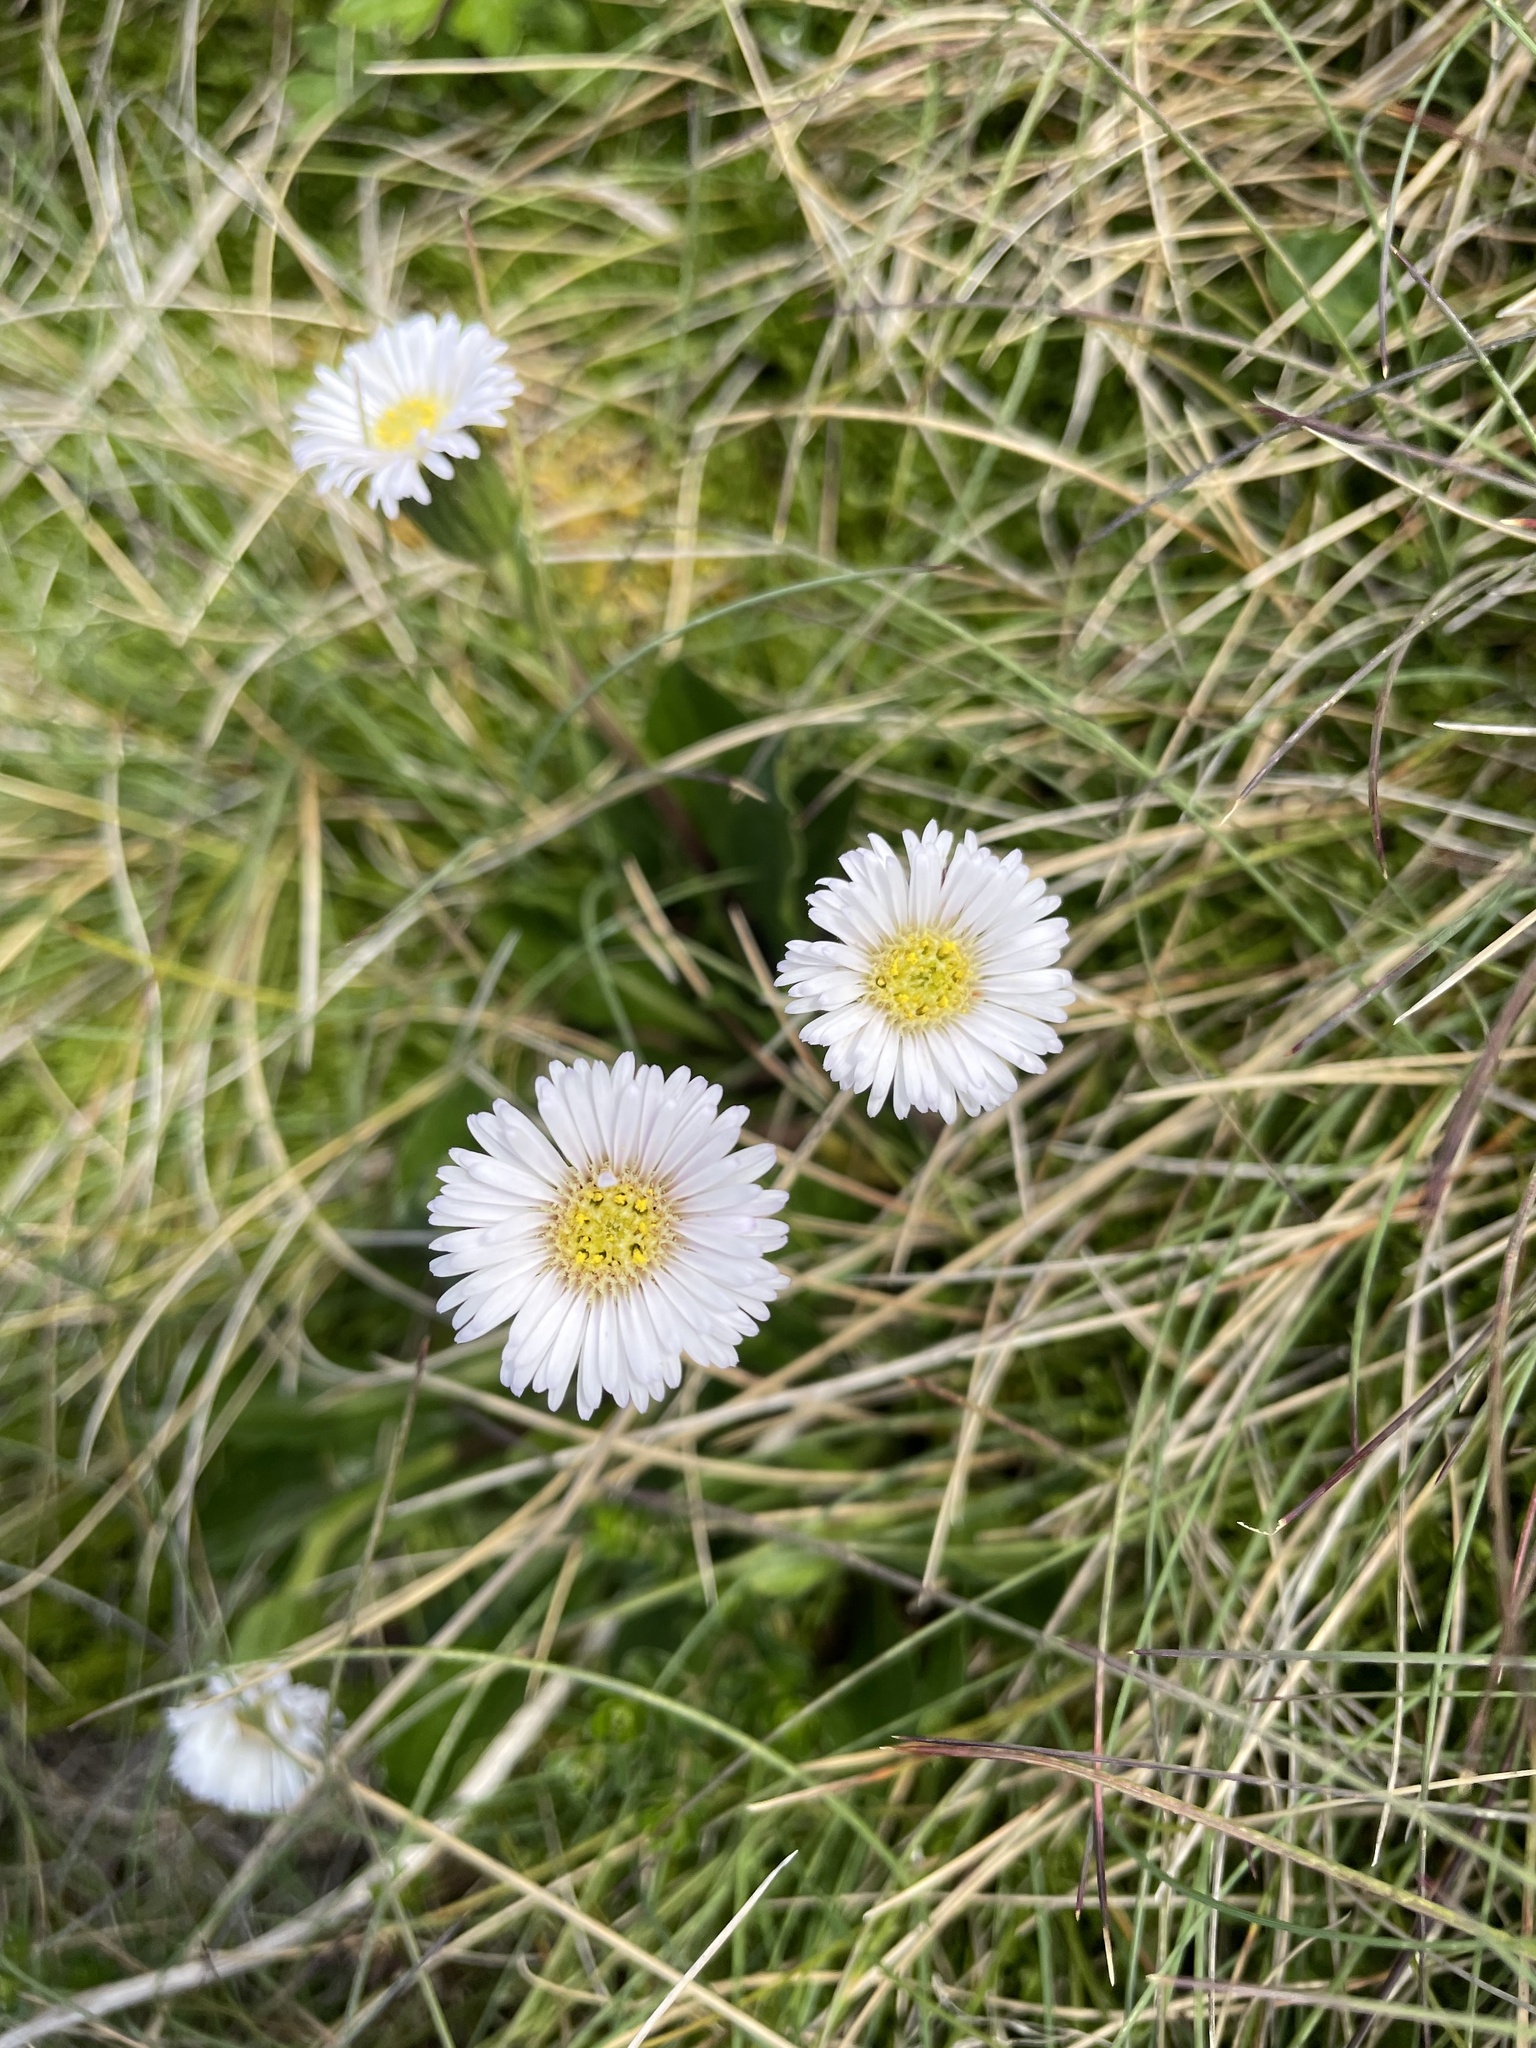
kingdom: Plantae
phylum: Tracheophyta
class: Magnoliopsida
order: Asterales
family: Asteraceae
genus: Brachyscome
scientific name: Brachyscome decipiens
